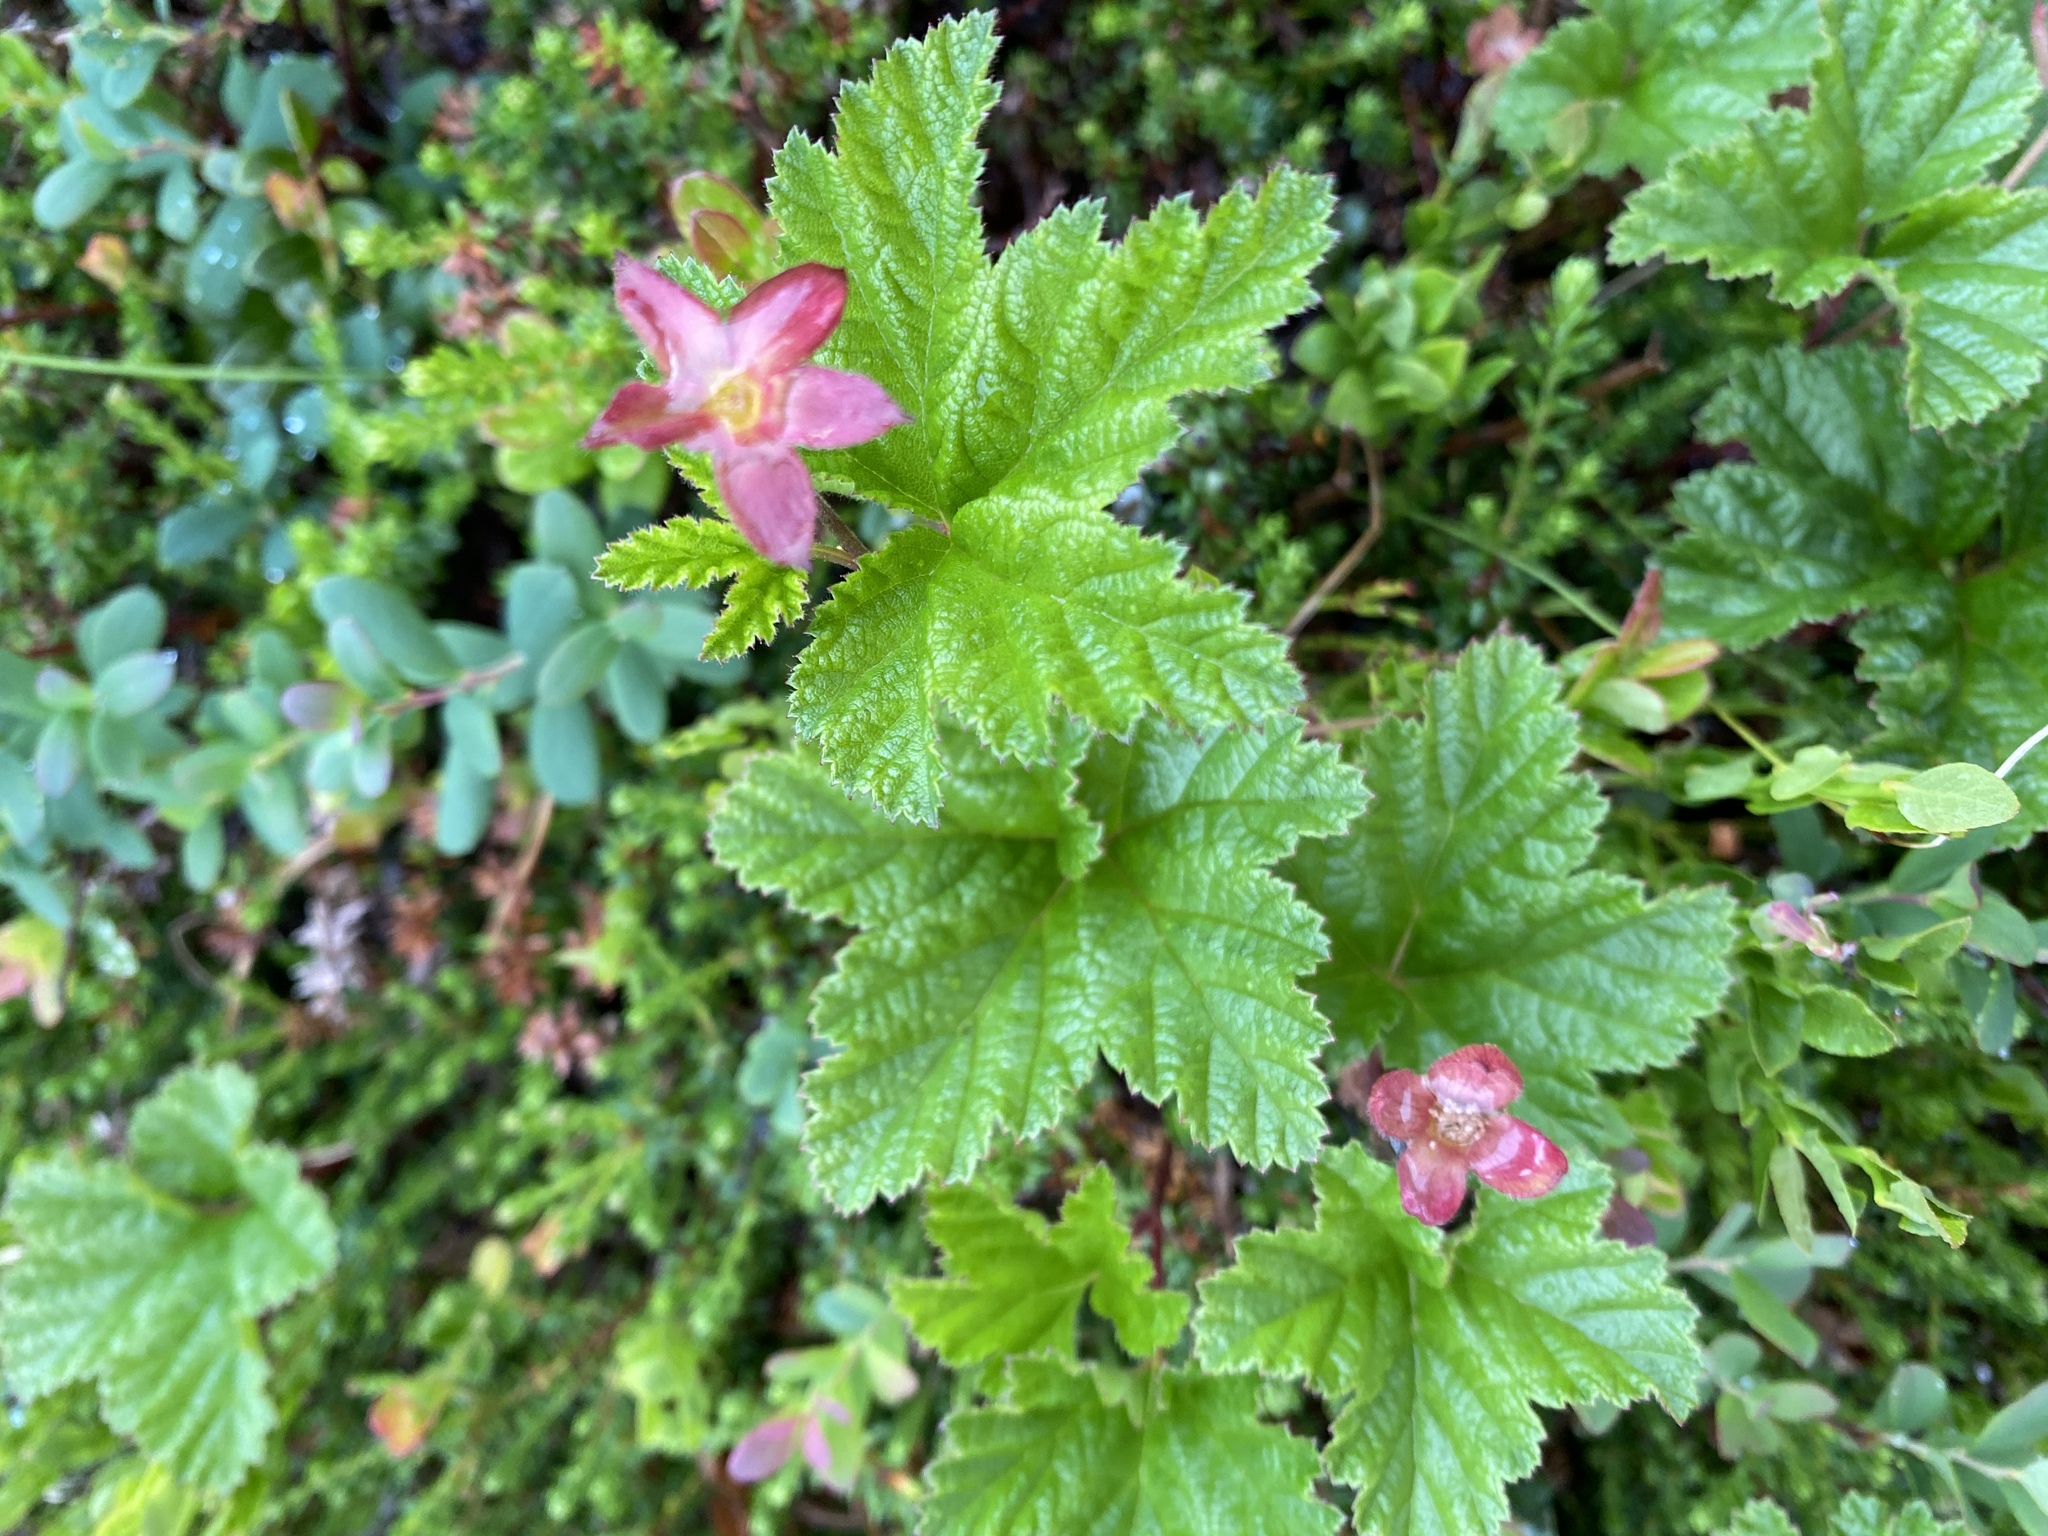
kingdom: Plantae
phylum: Tracheophyta
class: Magnoliopsida
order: Rosales
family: Rosaceae
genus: Rubus
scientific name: Rubus chamaemorus
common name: Cloudberry
